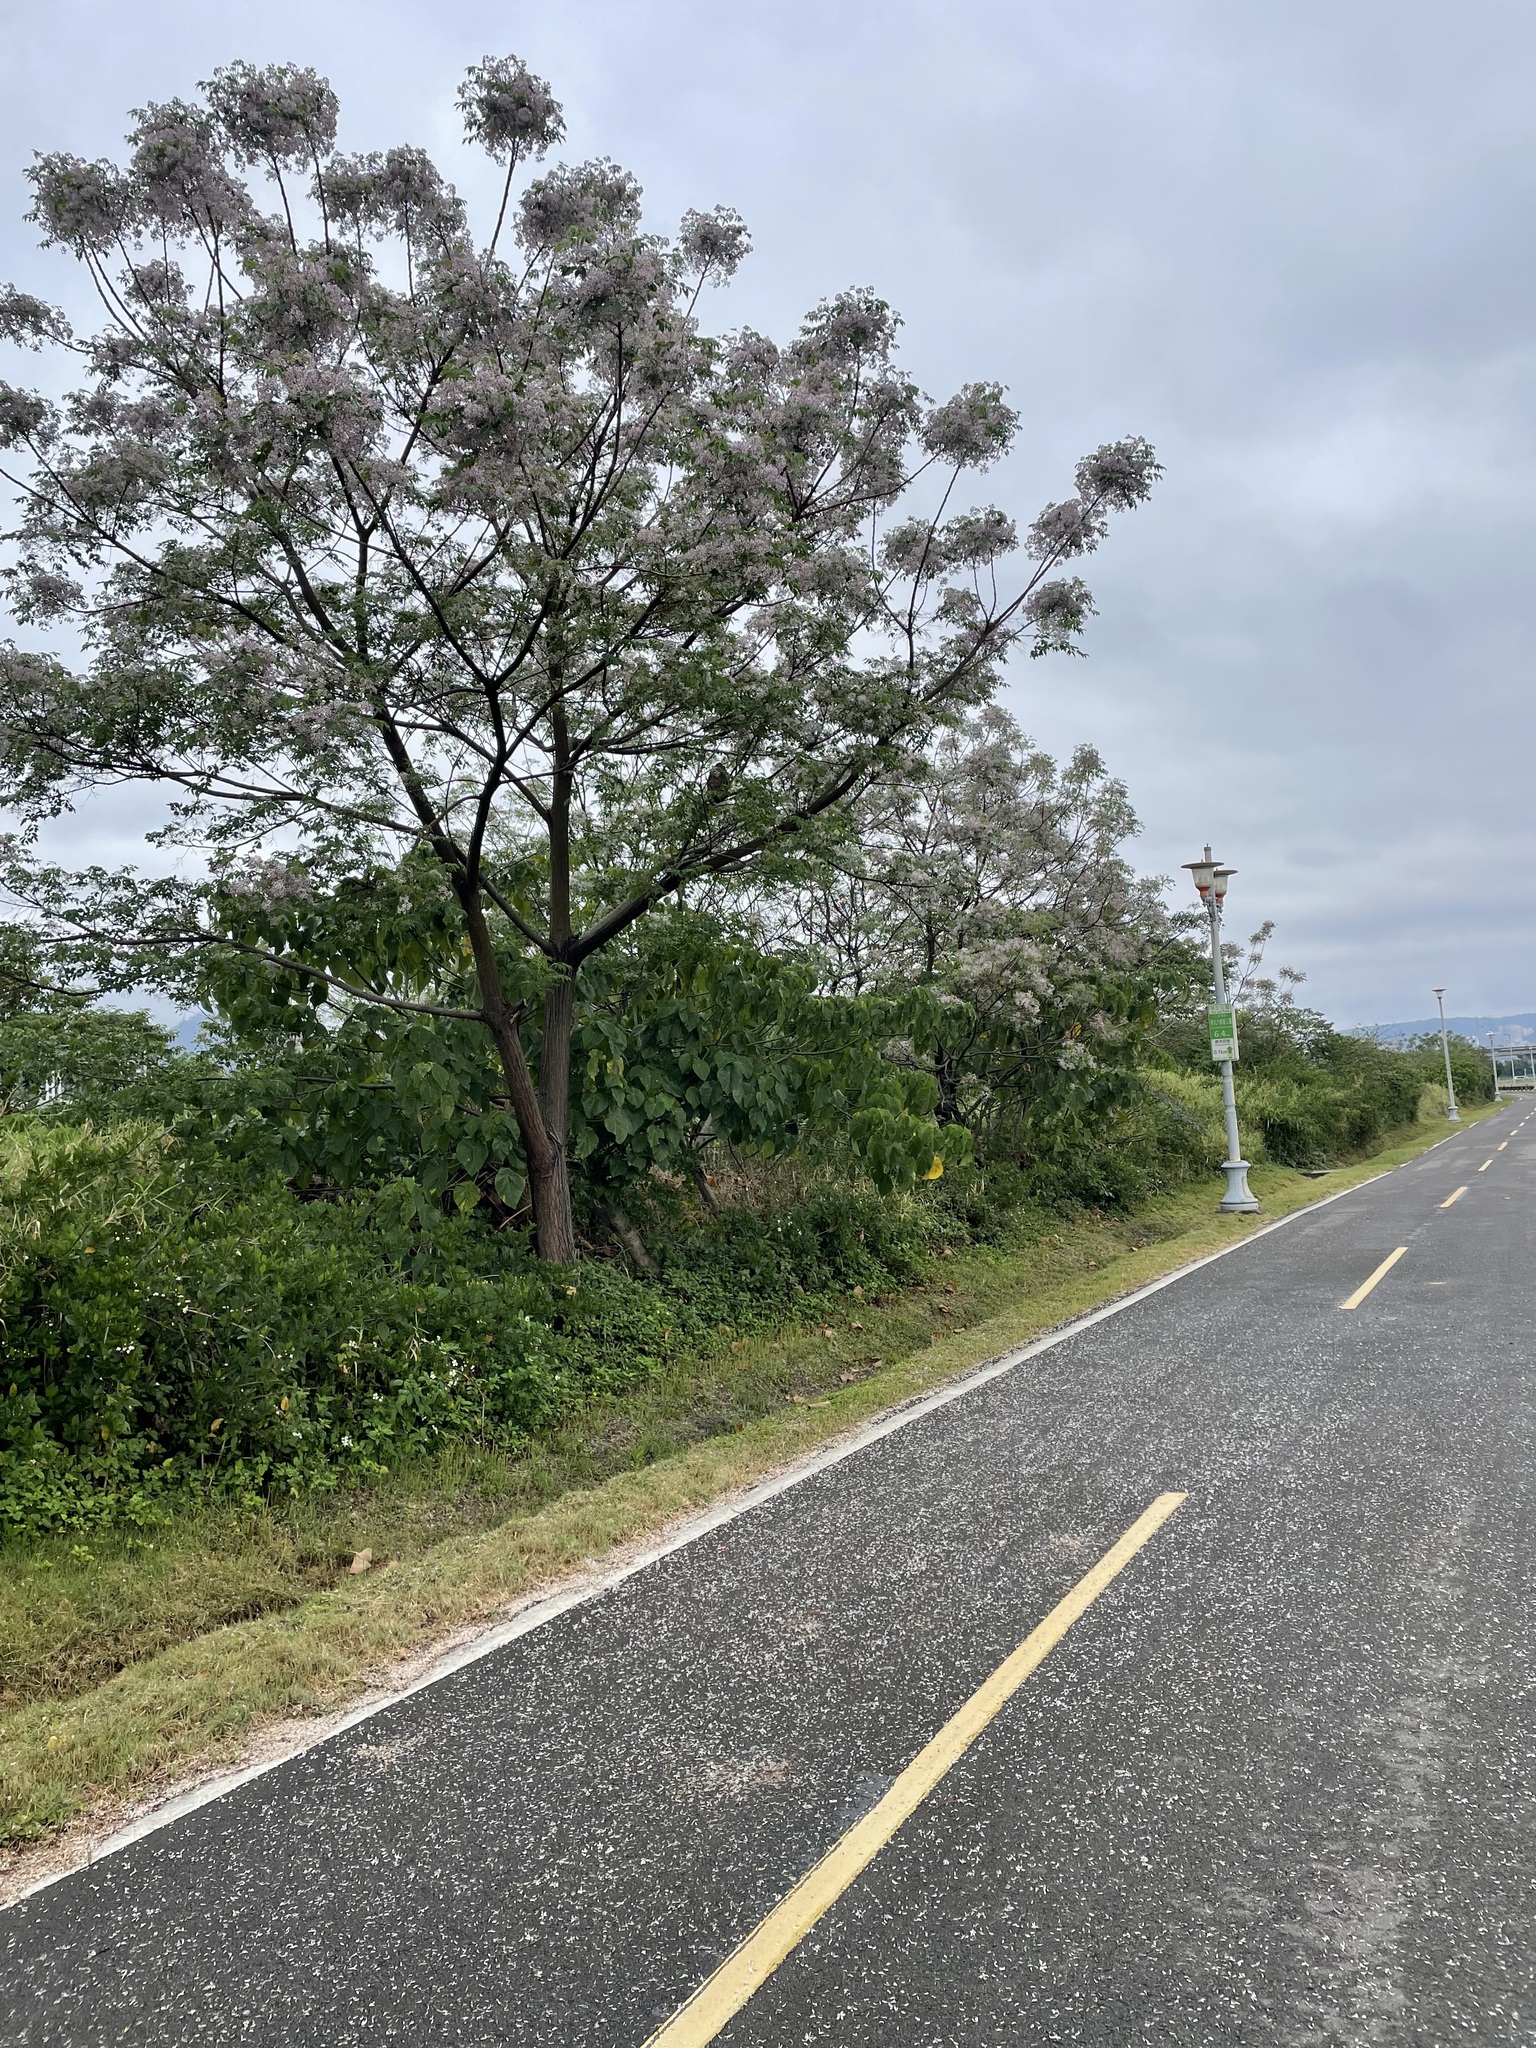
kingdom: Plantae
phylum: Tracheophyta
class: Magnoliopsida
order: Sapindales
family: Meliaceae
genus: Melia
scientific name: Melia azedarach
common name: Chinaberrytree
